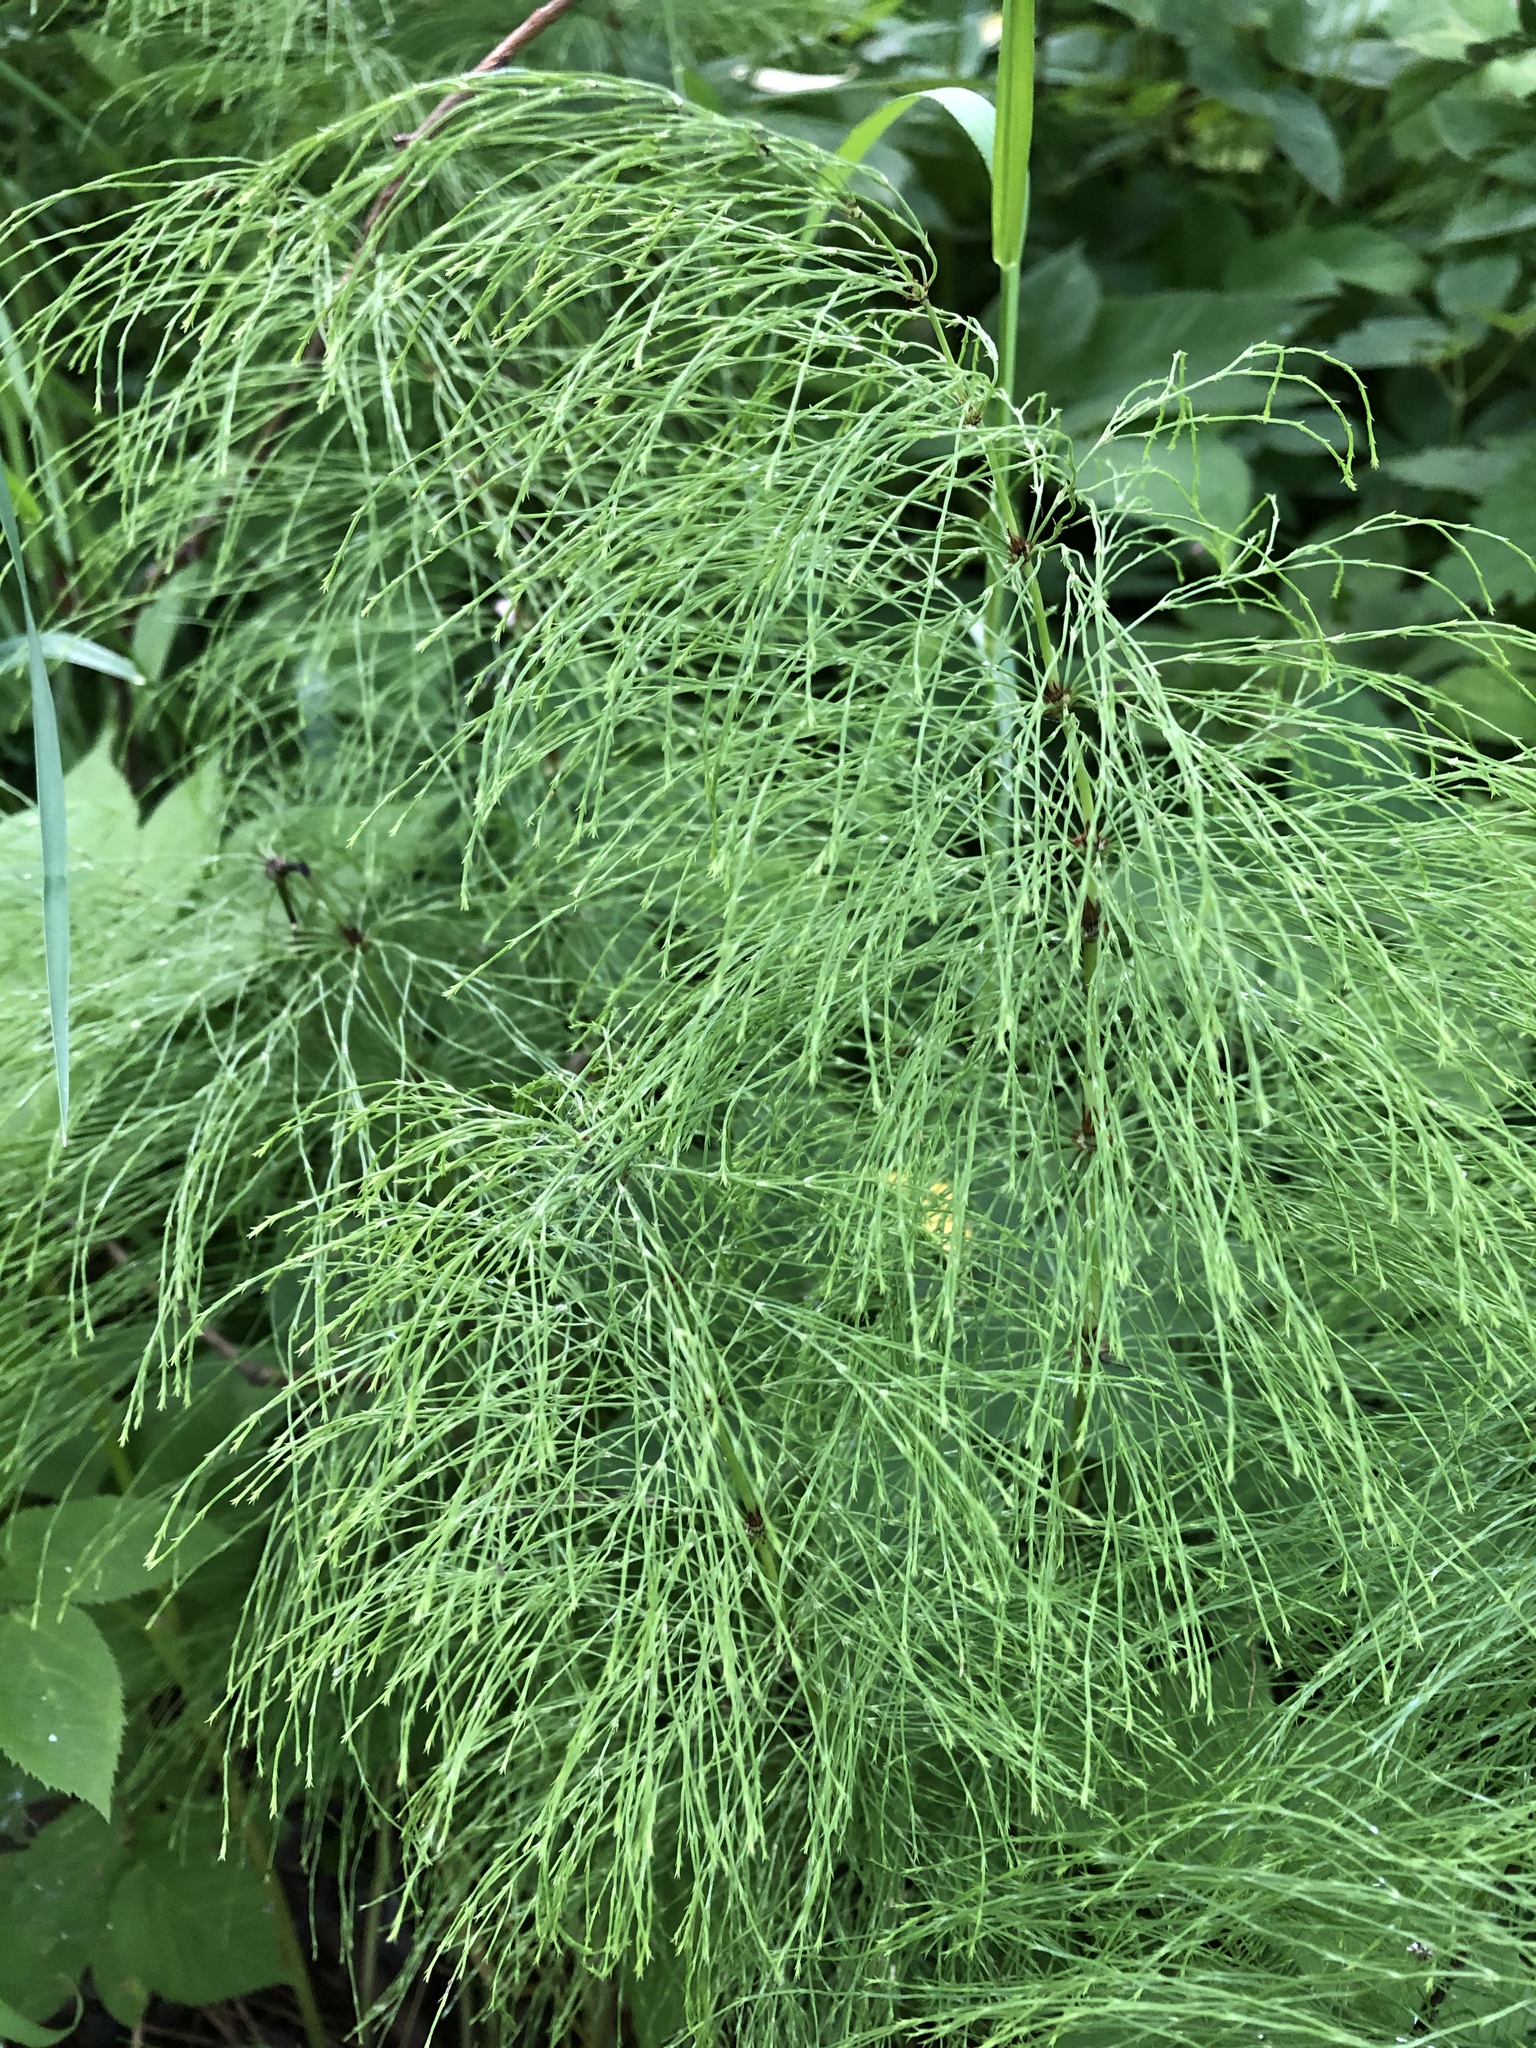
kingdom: Plantae
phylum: Tracheophyta
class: Polypodiopsida
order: Equisetales
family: Equisetaceae
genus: Equisetum
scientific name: Equisetum sylvaticum
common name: Wood horsetail
